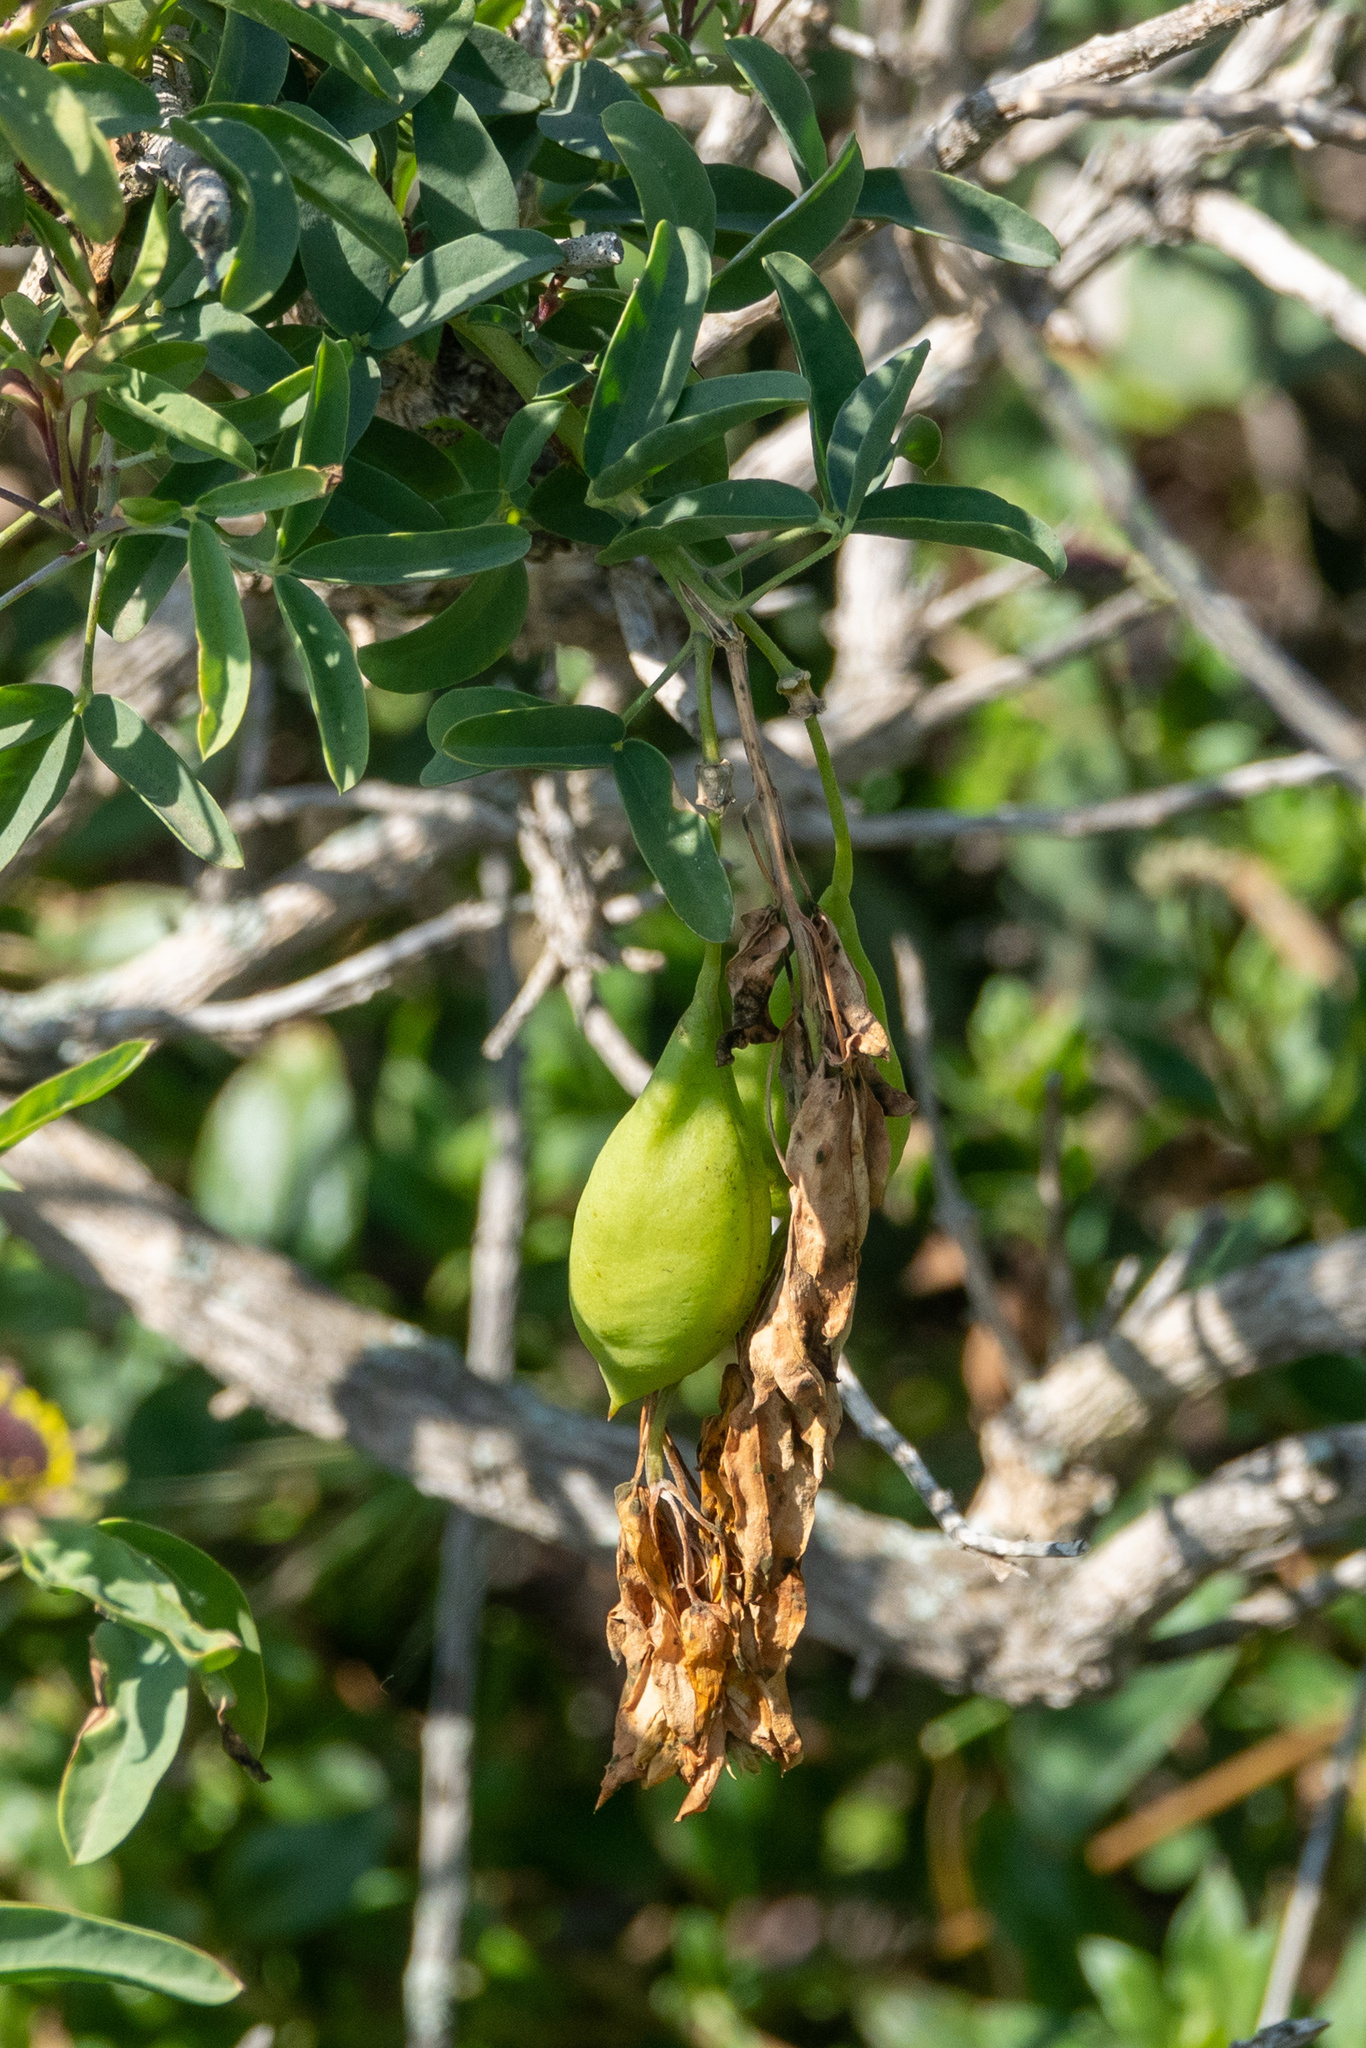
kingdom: Plantae
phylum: Tracheophyta
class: Magnoliopsida
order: Brassicales
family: Cleomaceae
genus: Cleomella
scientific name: Cleomella arborea
